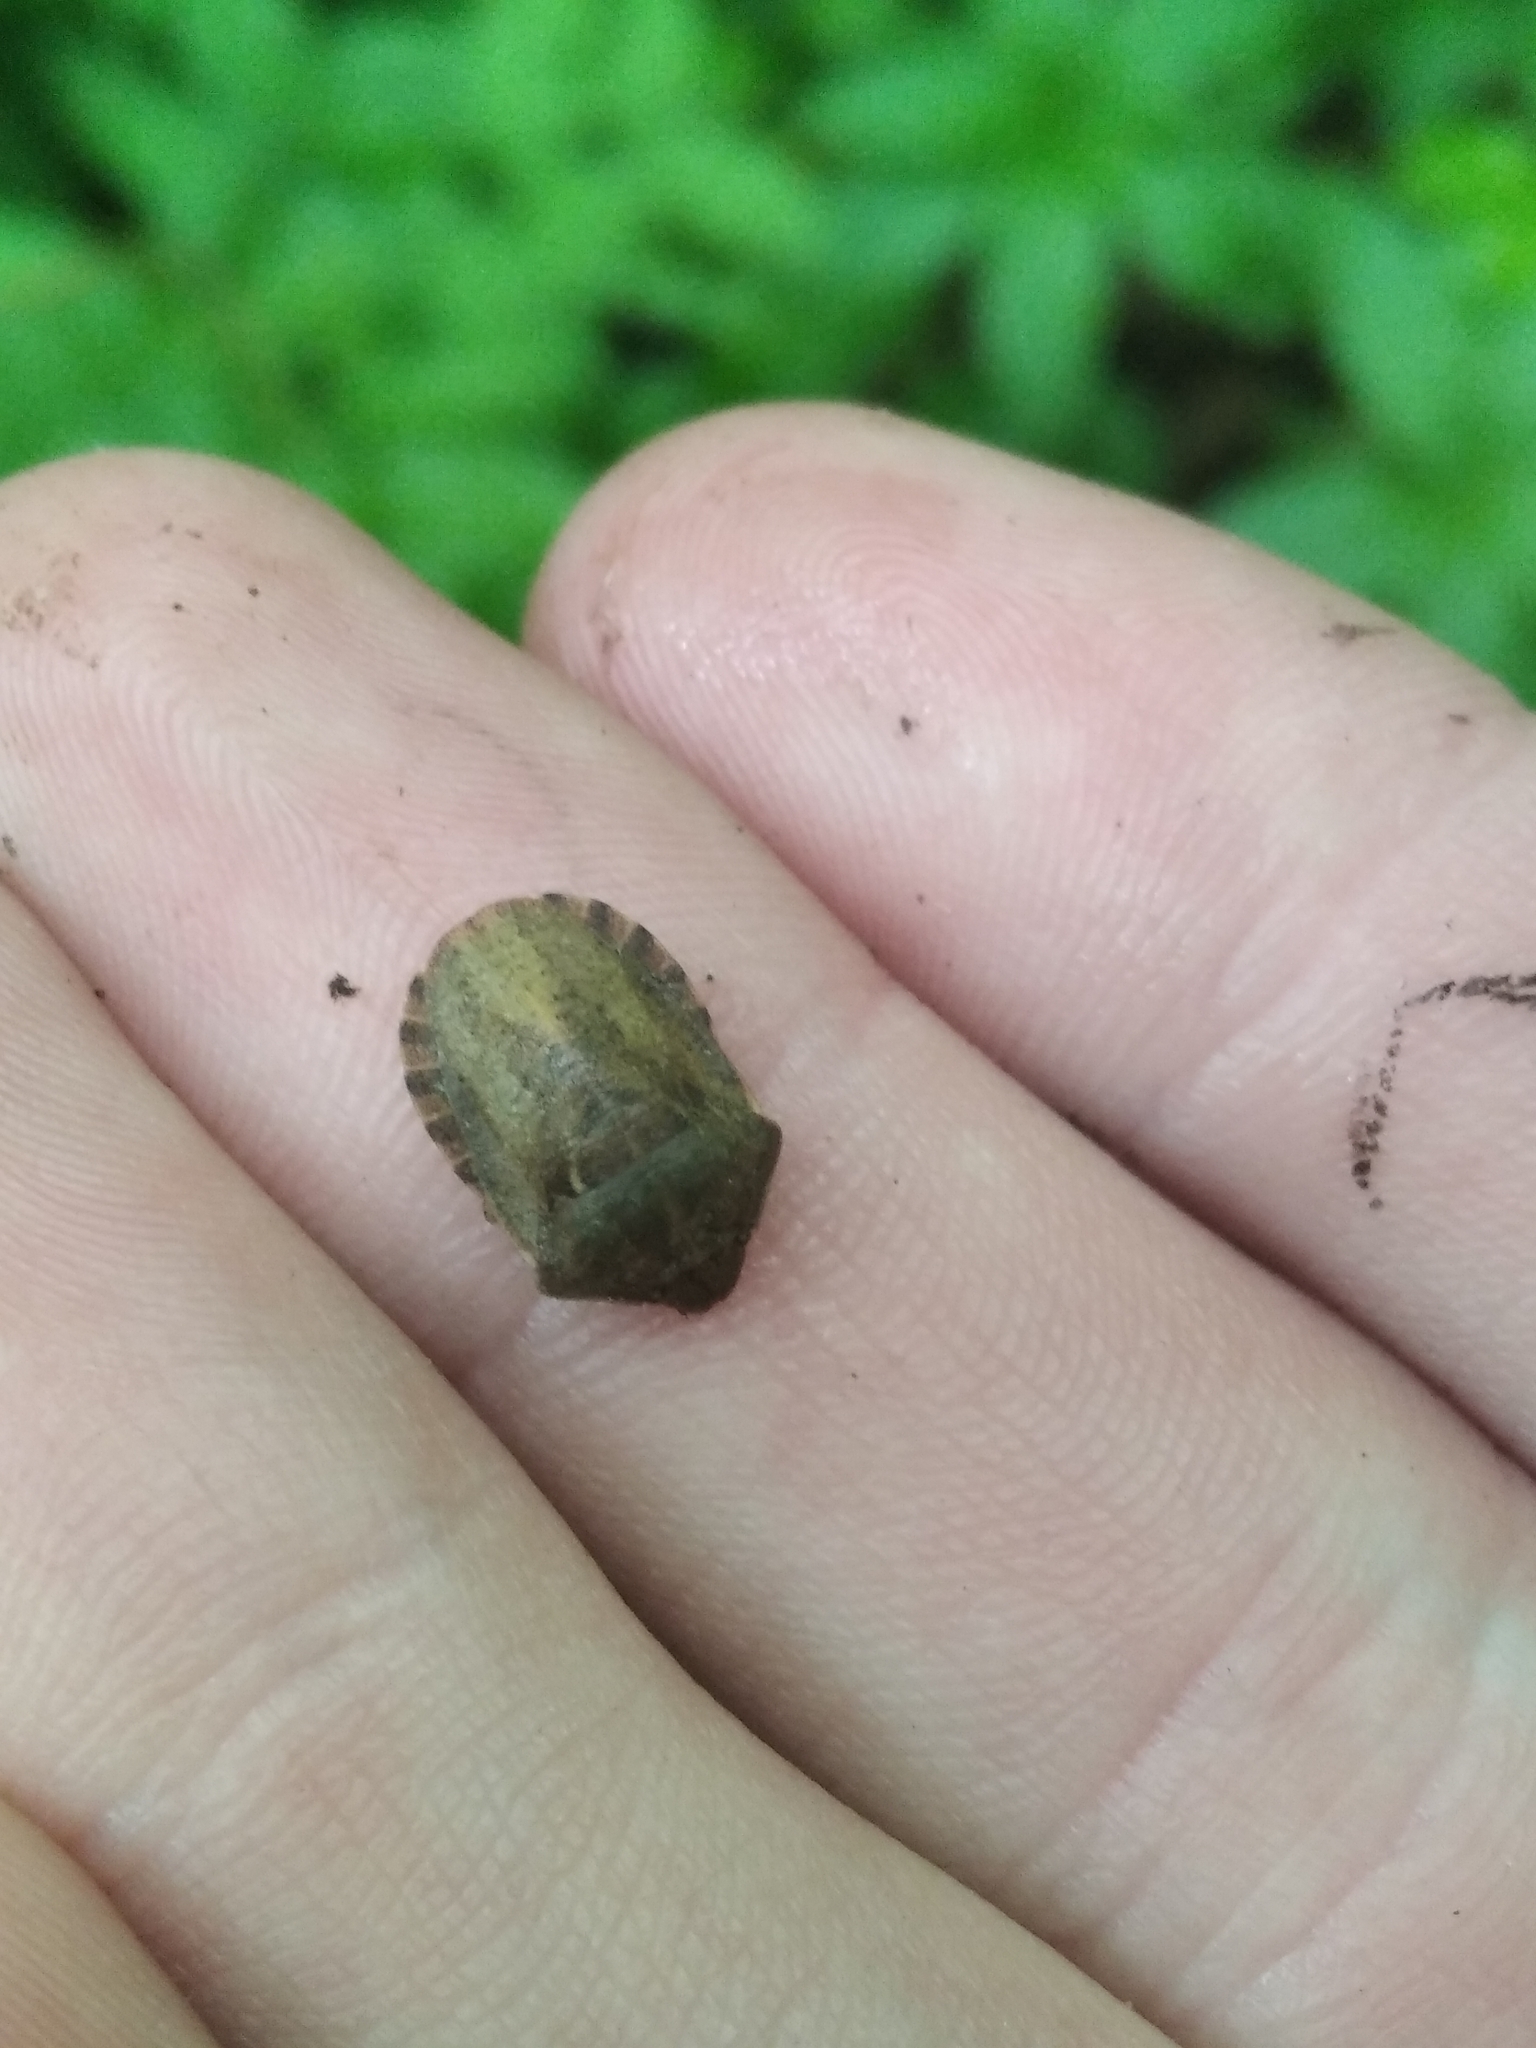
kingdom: Animalia
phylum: Arthropoda
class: Insecta
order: Hemiptera
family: Scutelleridae
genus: Eurygaster
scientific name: Eurygaster testudinaria
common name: Tortoise bug
